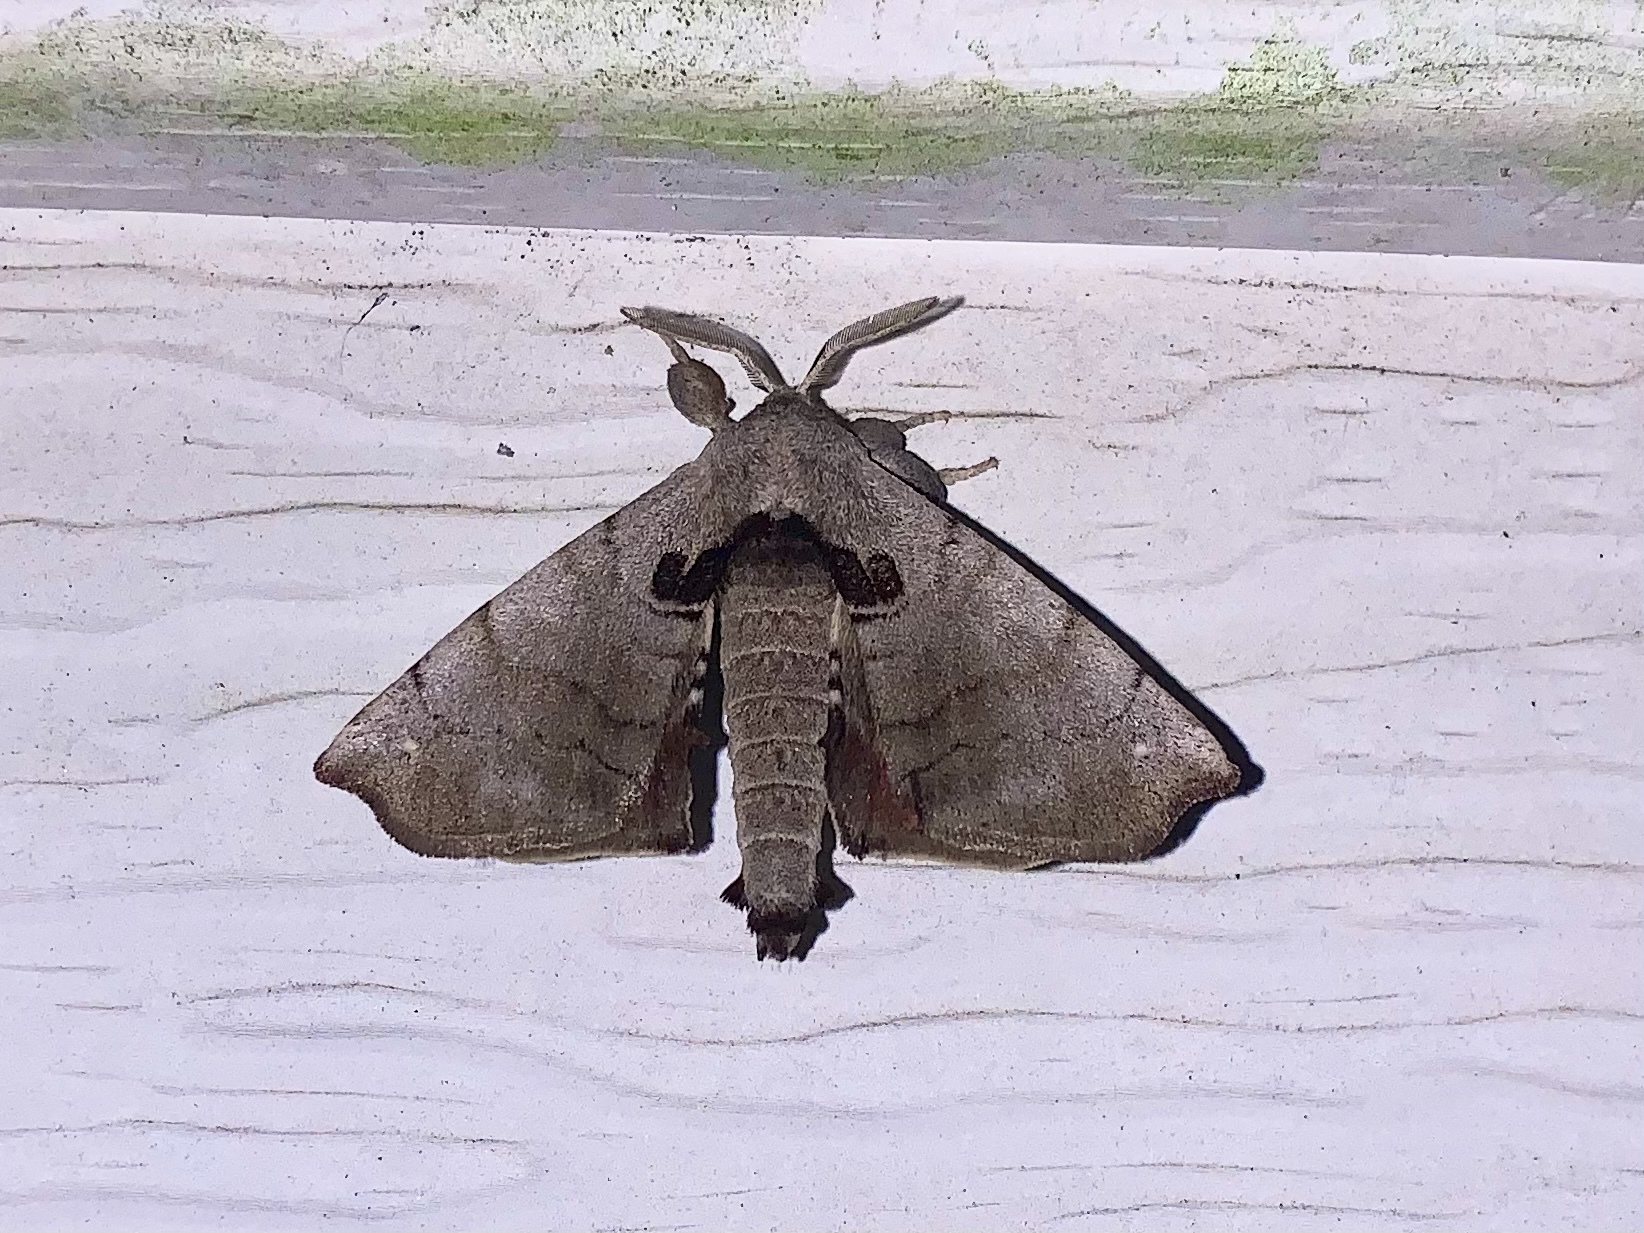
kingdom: Animalia
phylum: Arthropoda
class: Insecta
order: Lepidoptera
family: Apatelodidae
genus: Hygrochroa
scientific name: Hygrochroa Apatelodes torrefacta
